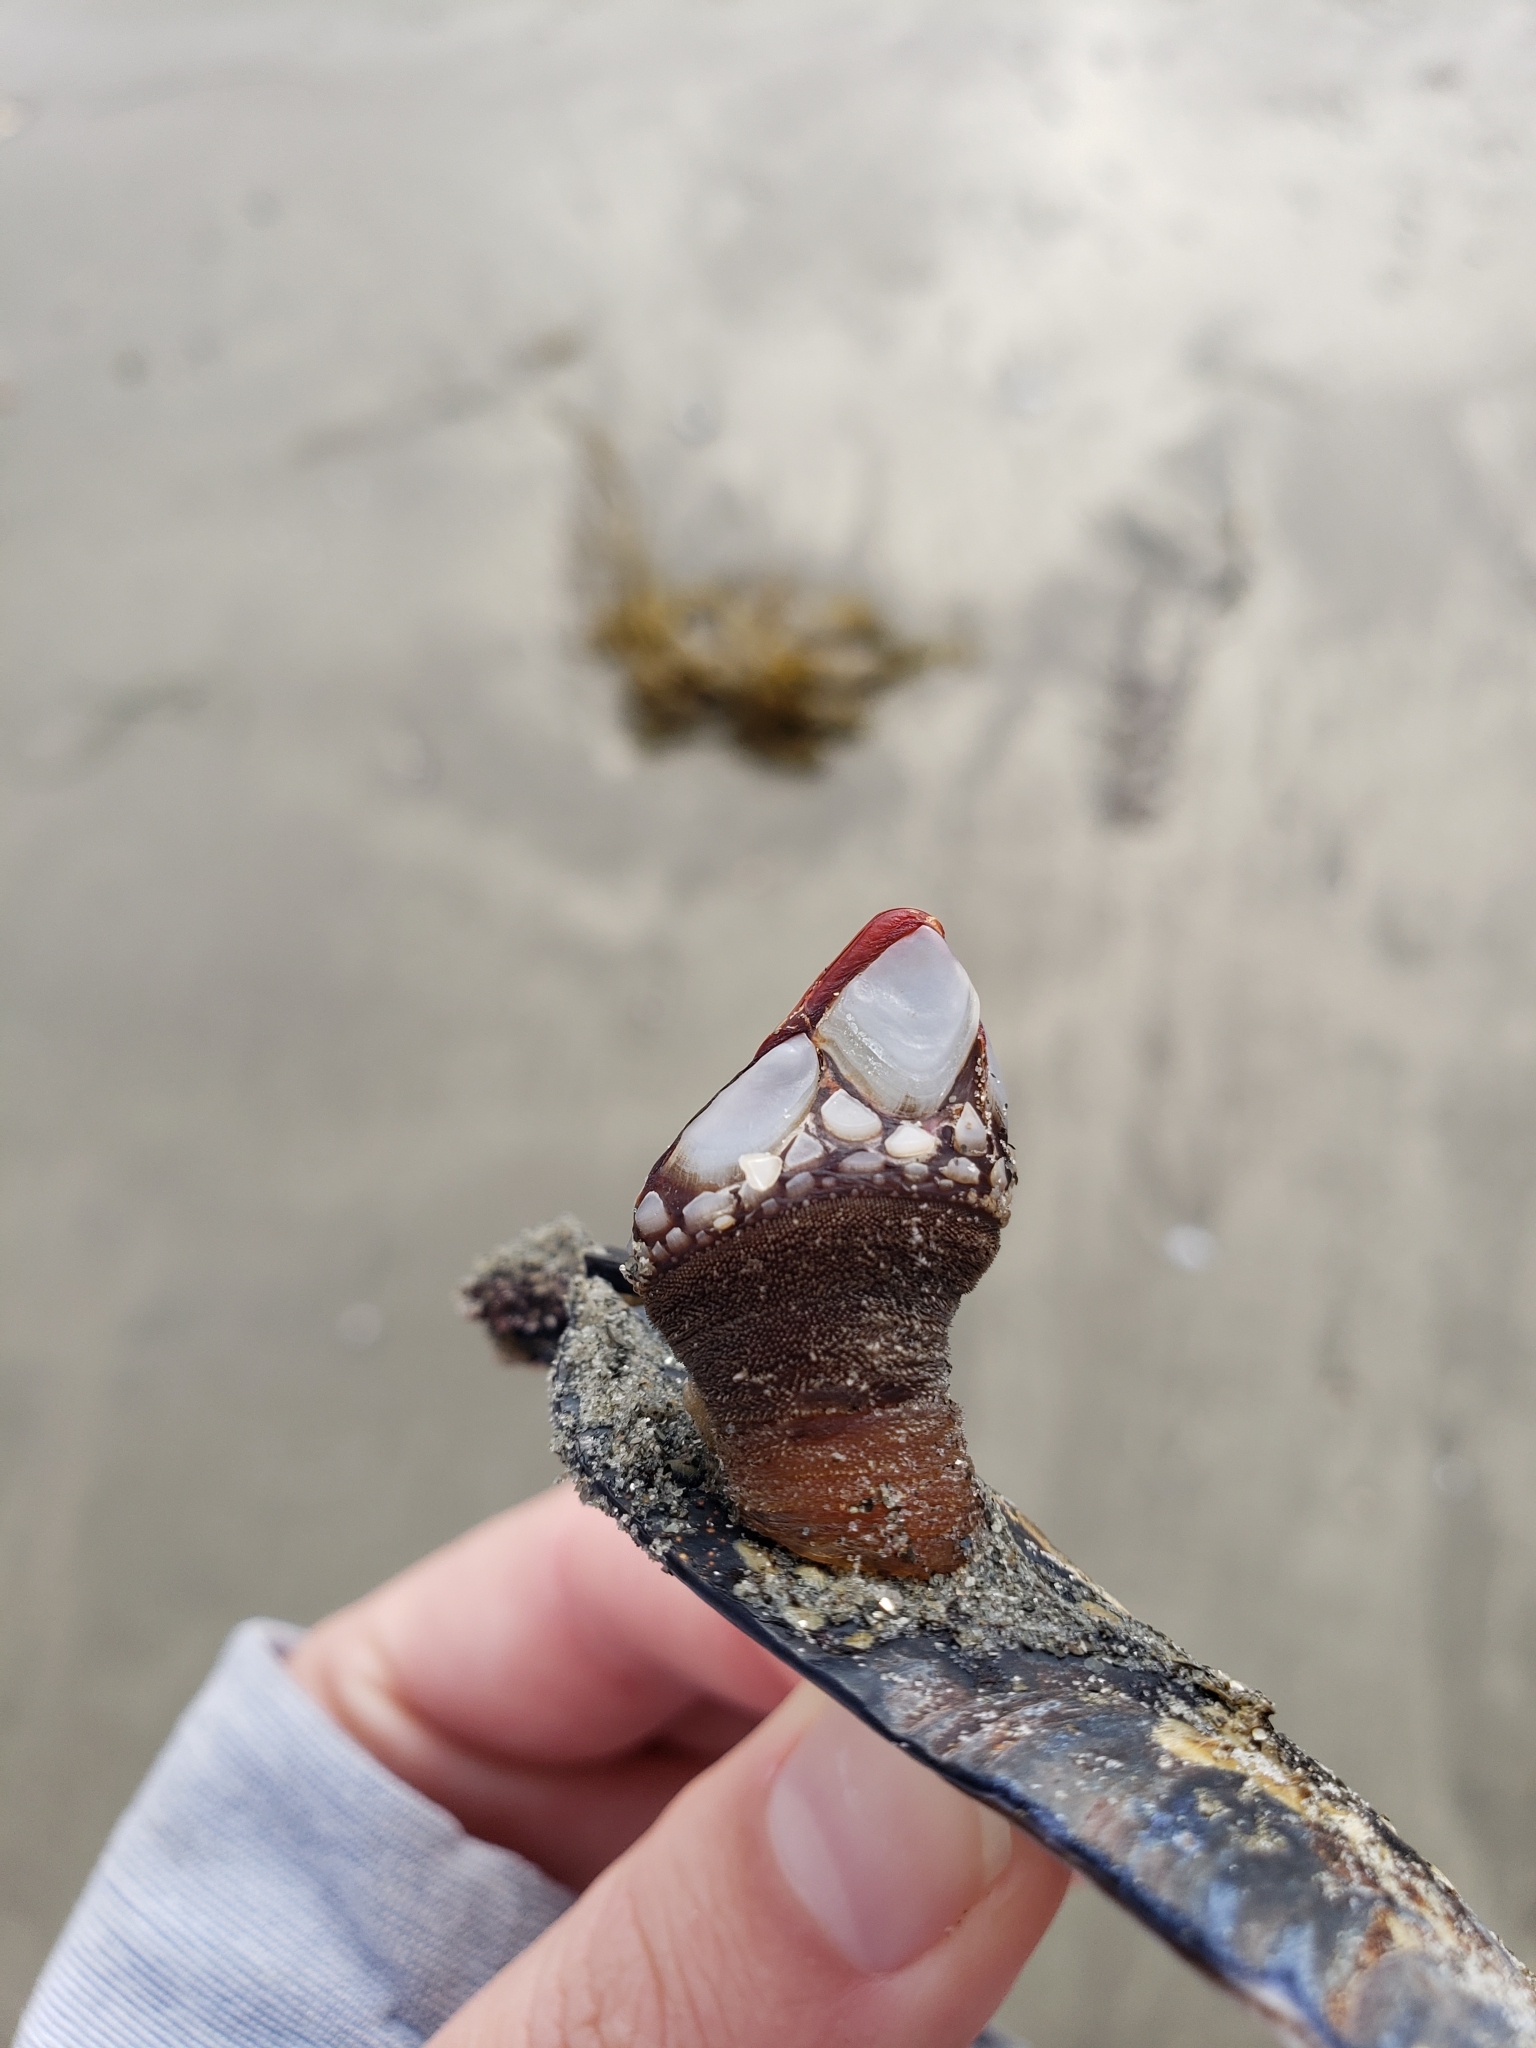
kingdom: Animalia
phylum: Arthropoda
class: Maxillopoda
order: Pedunculata
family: Pollicipedidae
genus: Pollicipes
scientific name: Pollicipes polymerus
